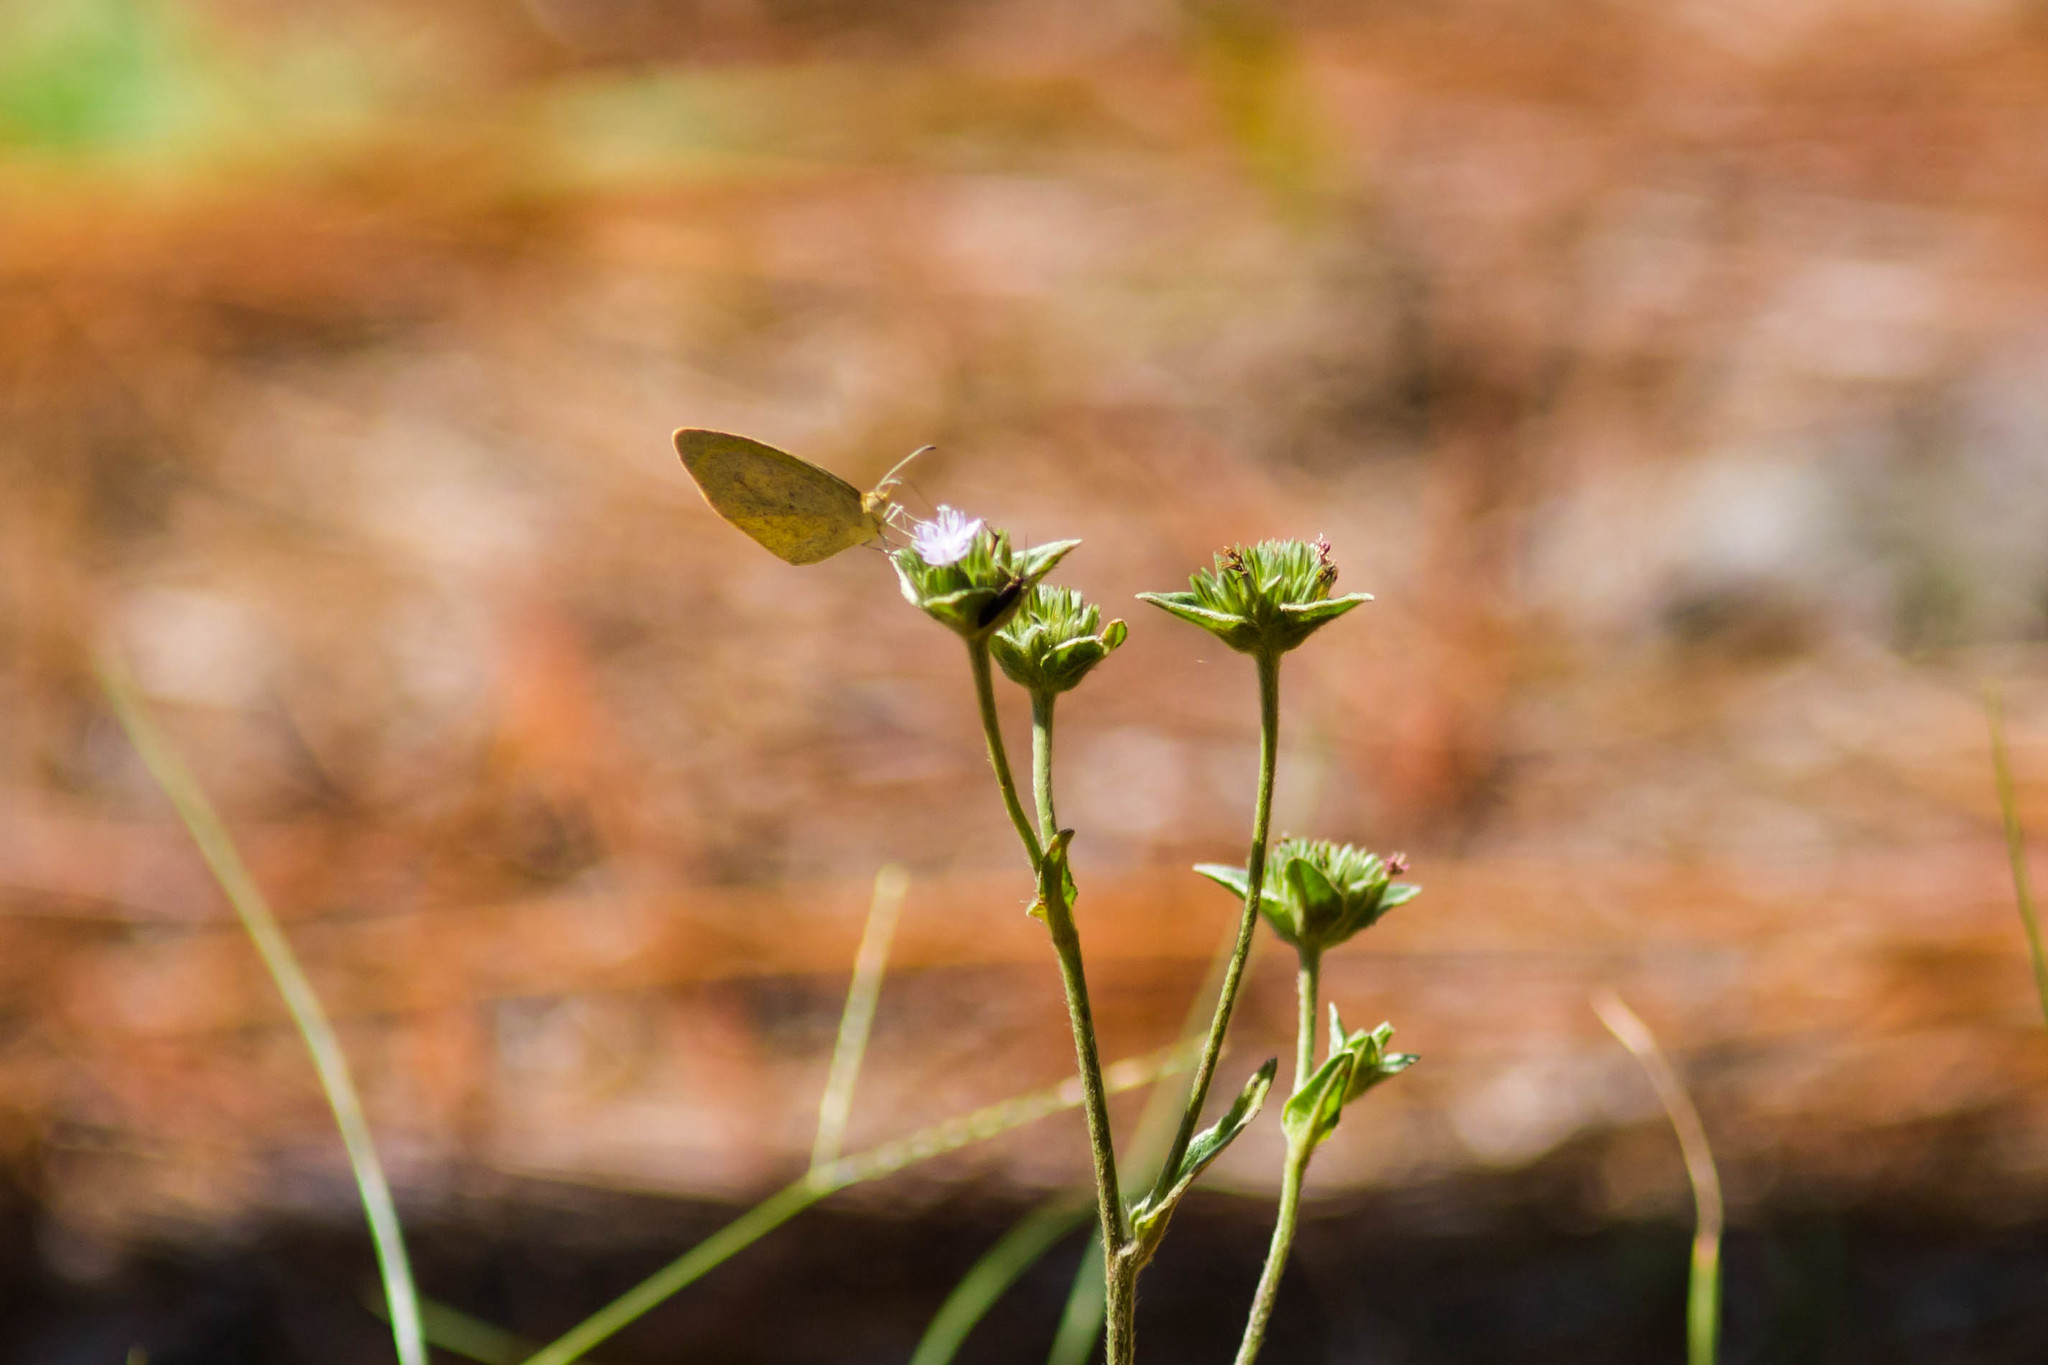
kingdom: Animalia
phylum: Arthropoda
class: Insecta
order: Lepidoptera
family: Pieridae
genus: Eurema
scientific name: Eurema daira
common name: Barred sulphur
